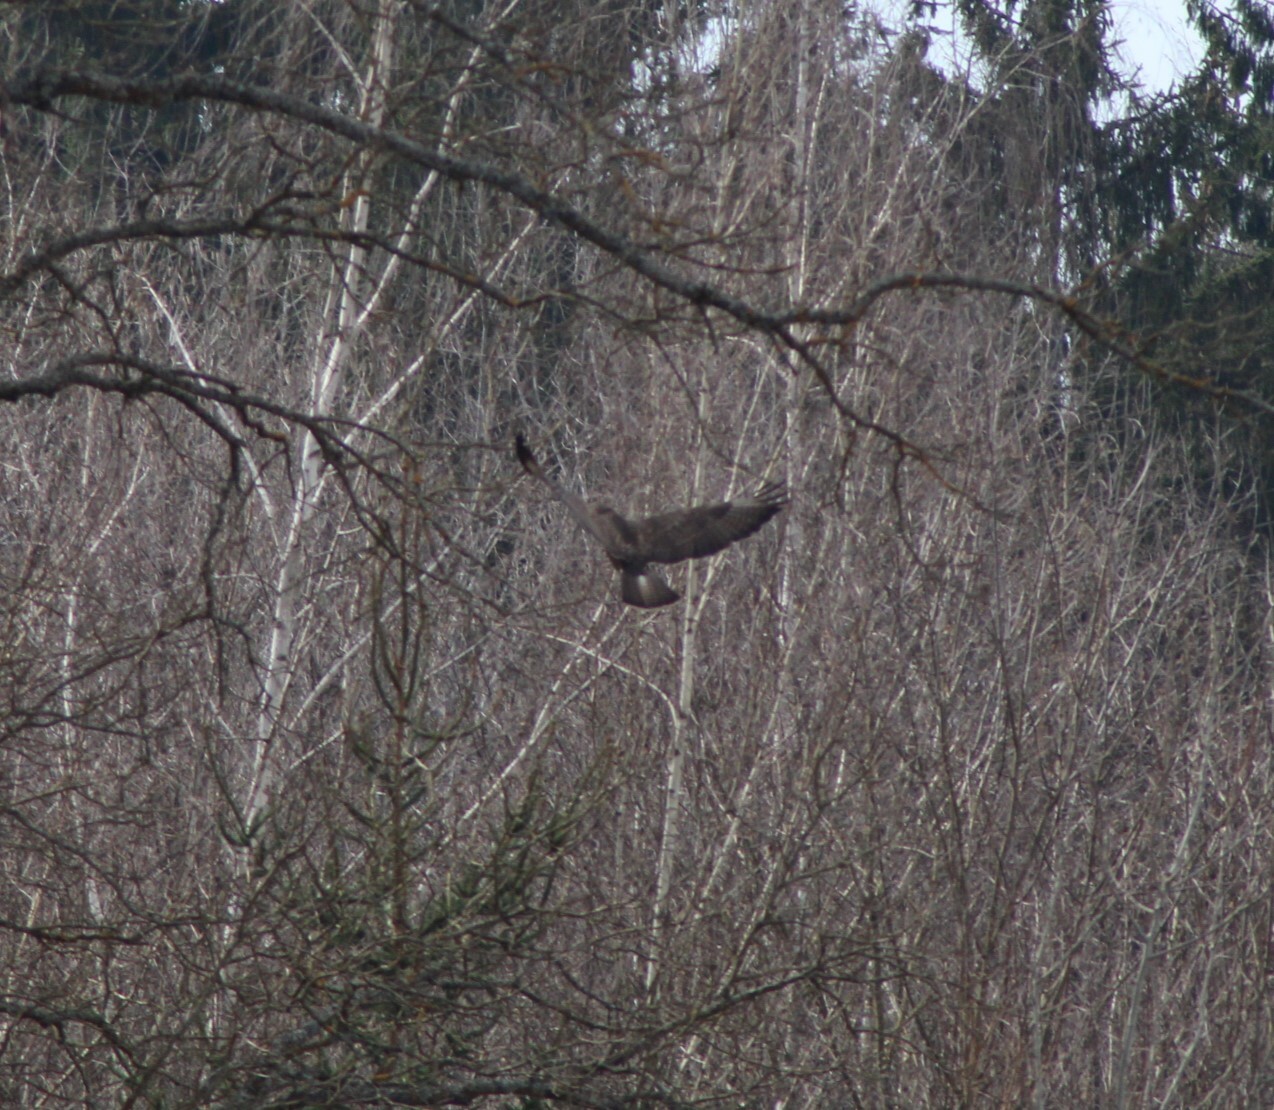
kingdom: Animalia
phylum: Chordata
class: Aves
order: Accipitriformes
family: Accipitridae
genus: Buteo
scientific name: Buteo buteo
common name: Common buzzard
